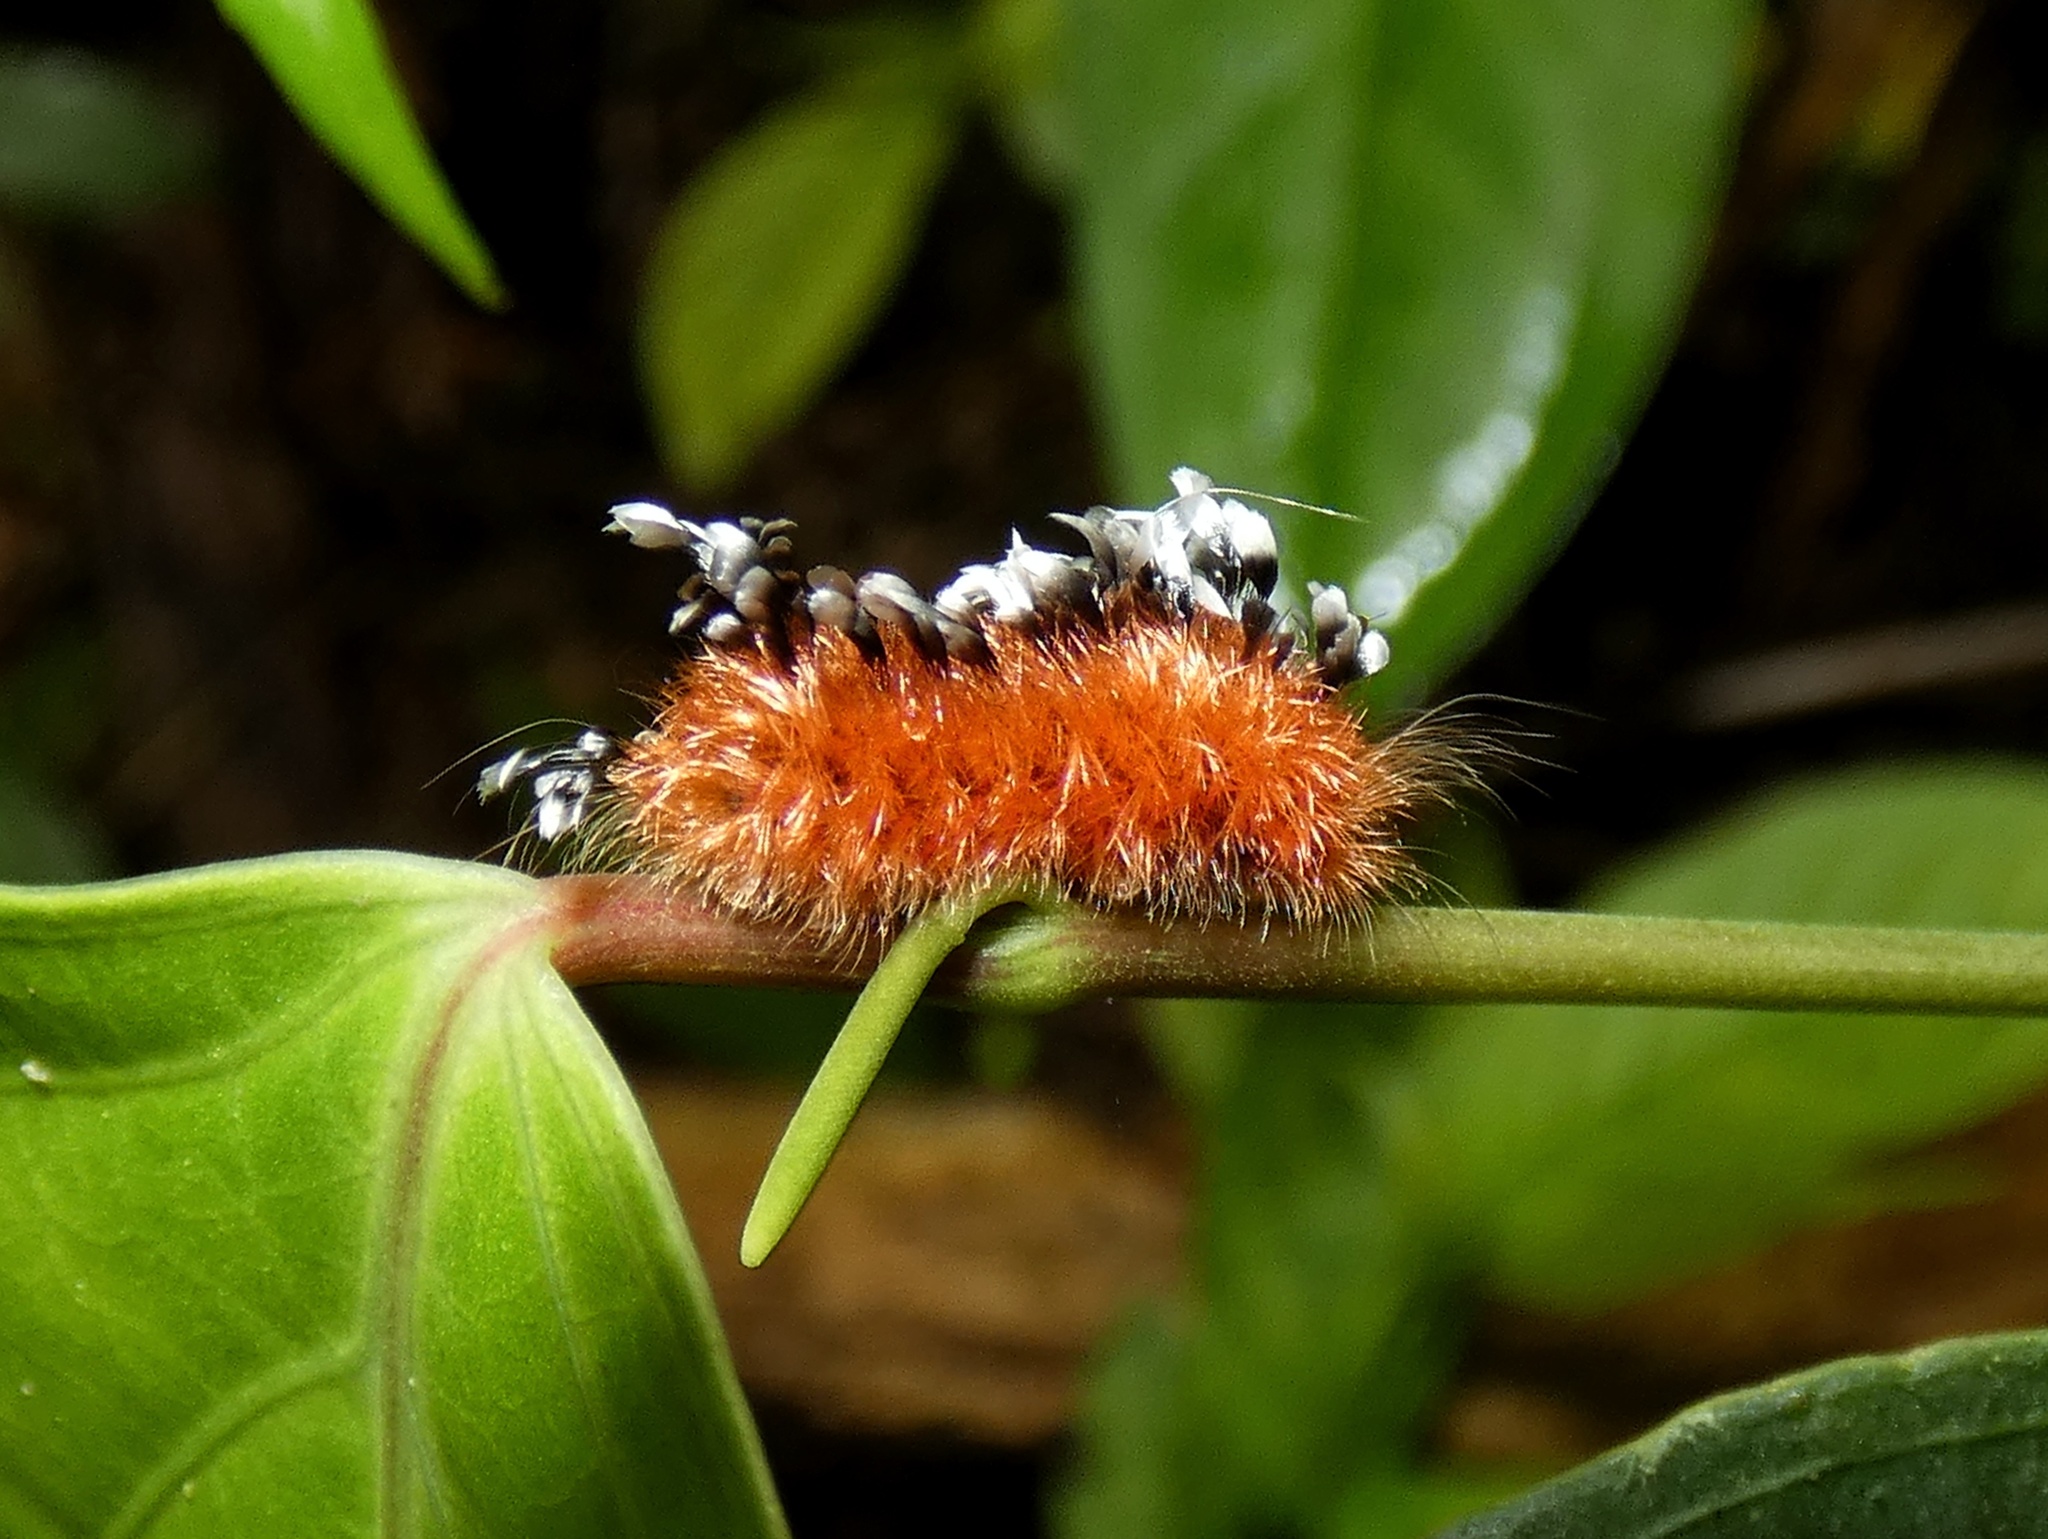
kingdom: Animalia
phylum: Arthropoda
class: Insecta
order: Lepidoptera
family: Bombycidae
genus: Prothysana
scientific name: Prothysana
